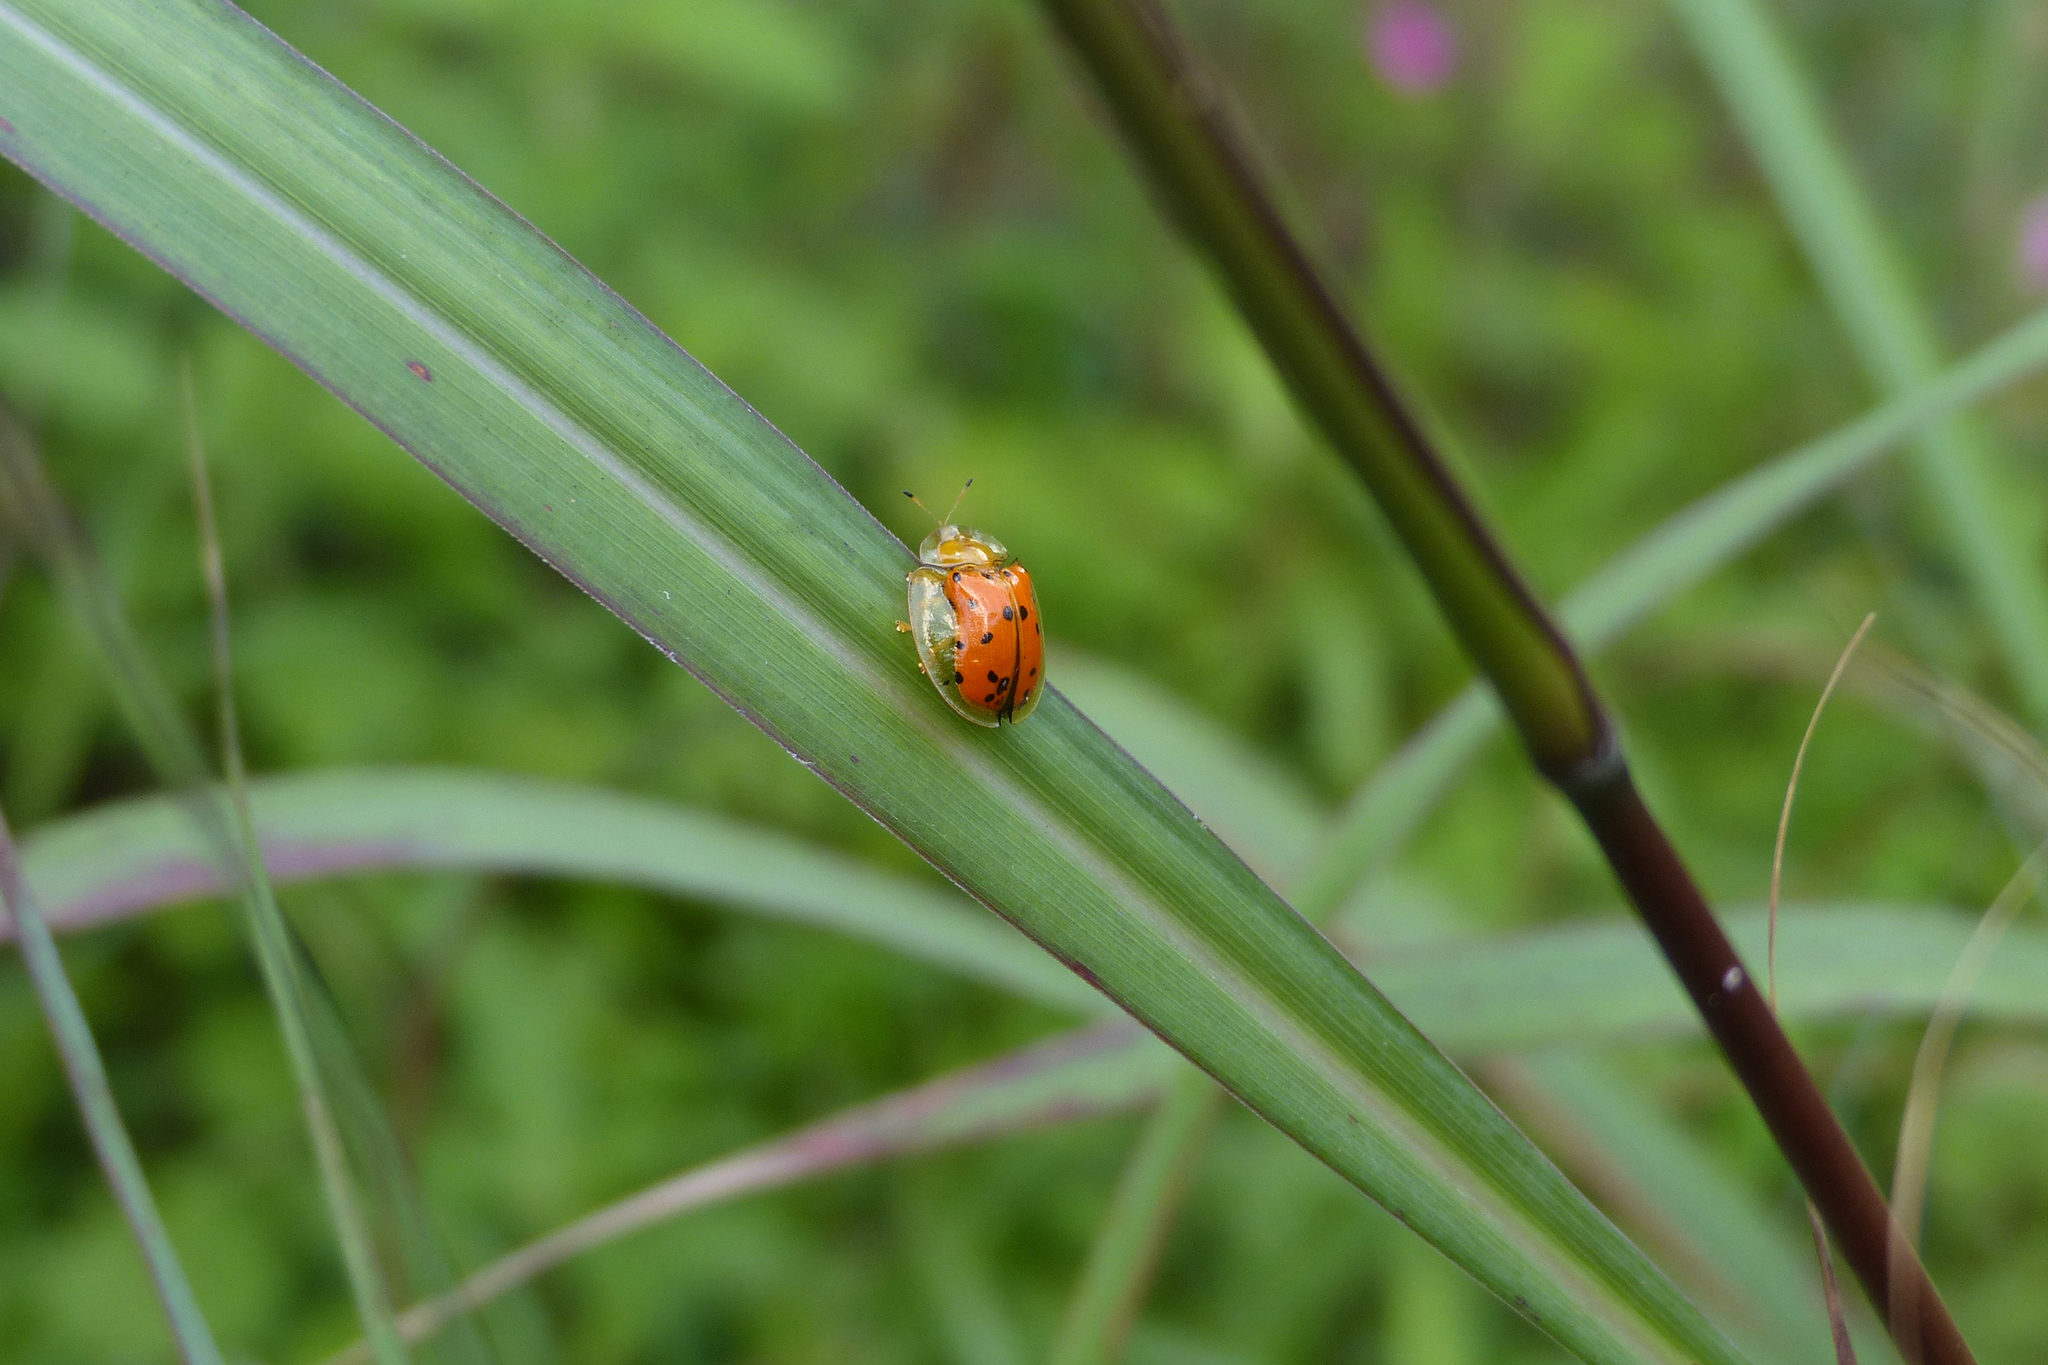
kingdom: Animalia
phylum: Arthropoda
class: Insecta
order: Coleoptera
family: Chrysomelidae
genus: Aspidimorpha
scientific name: Aspidimorpha miliaris
